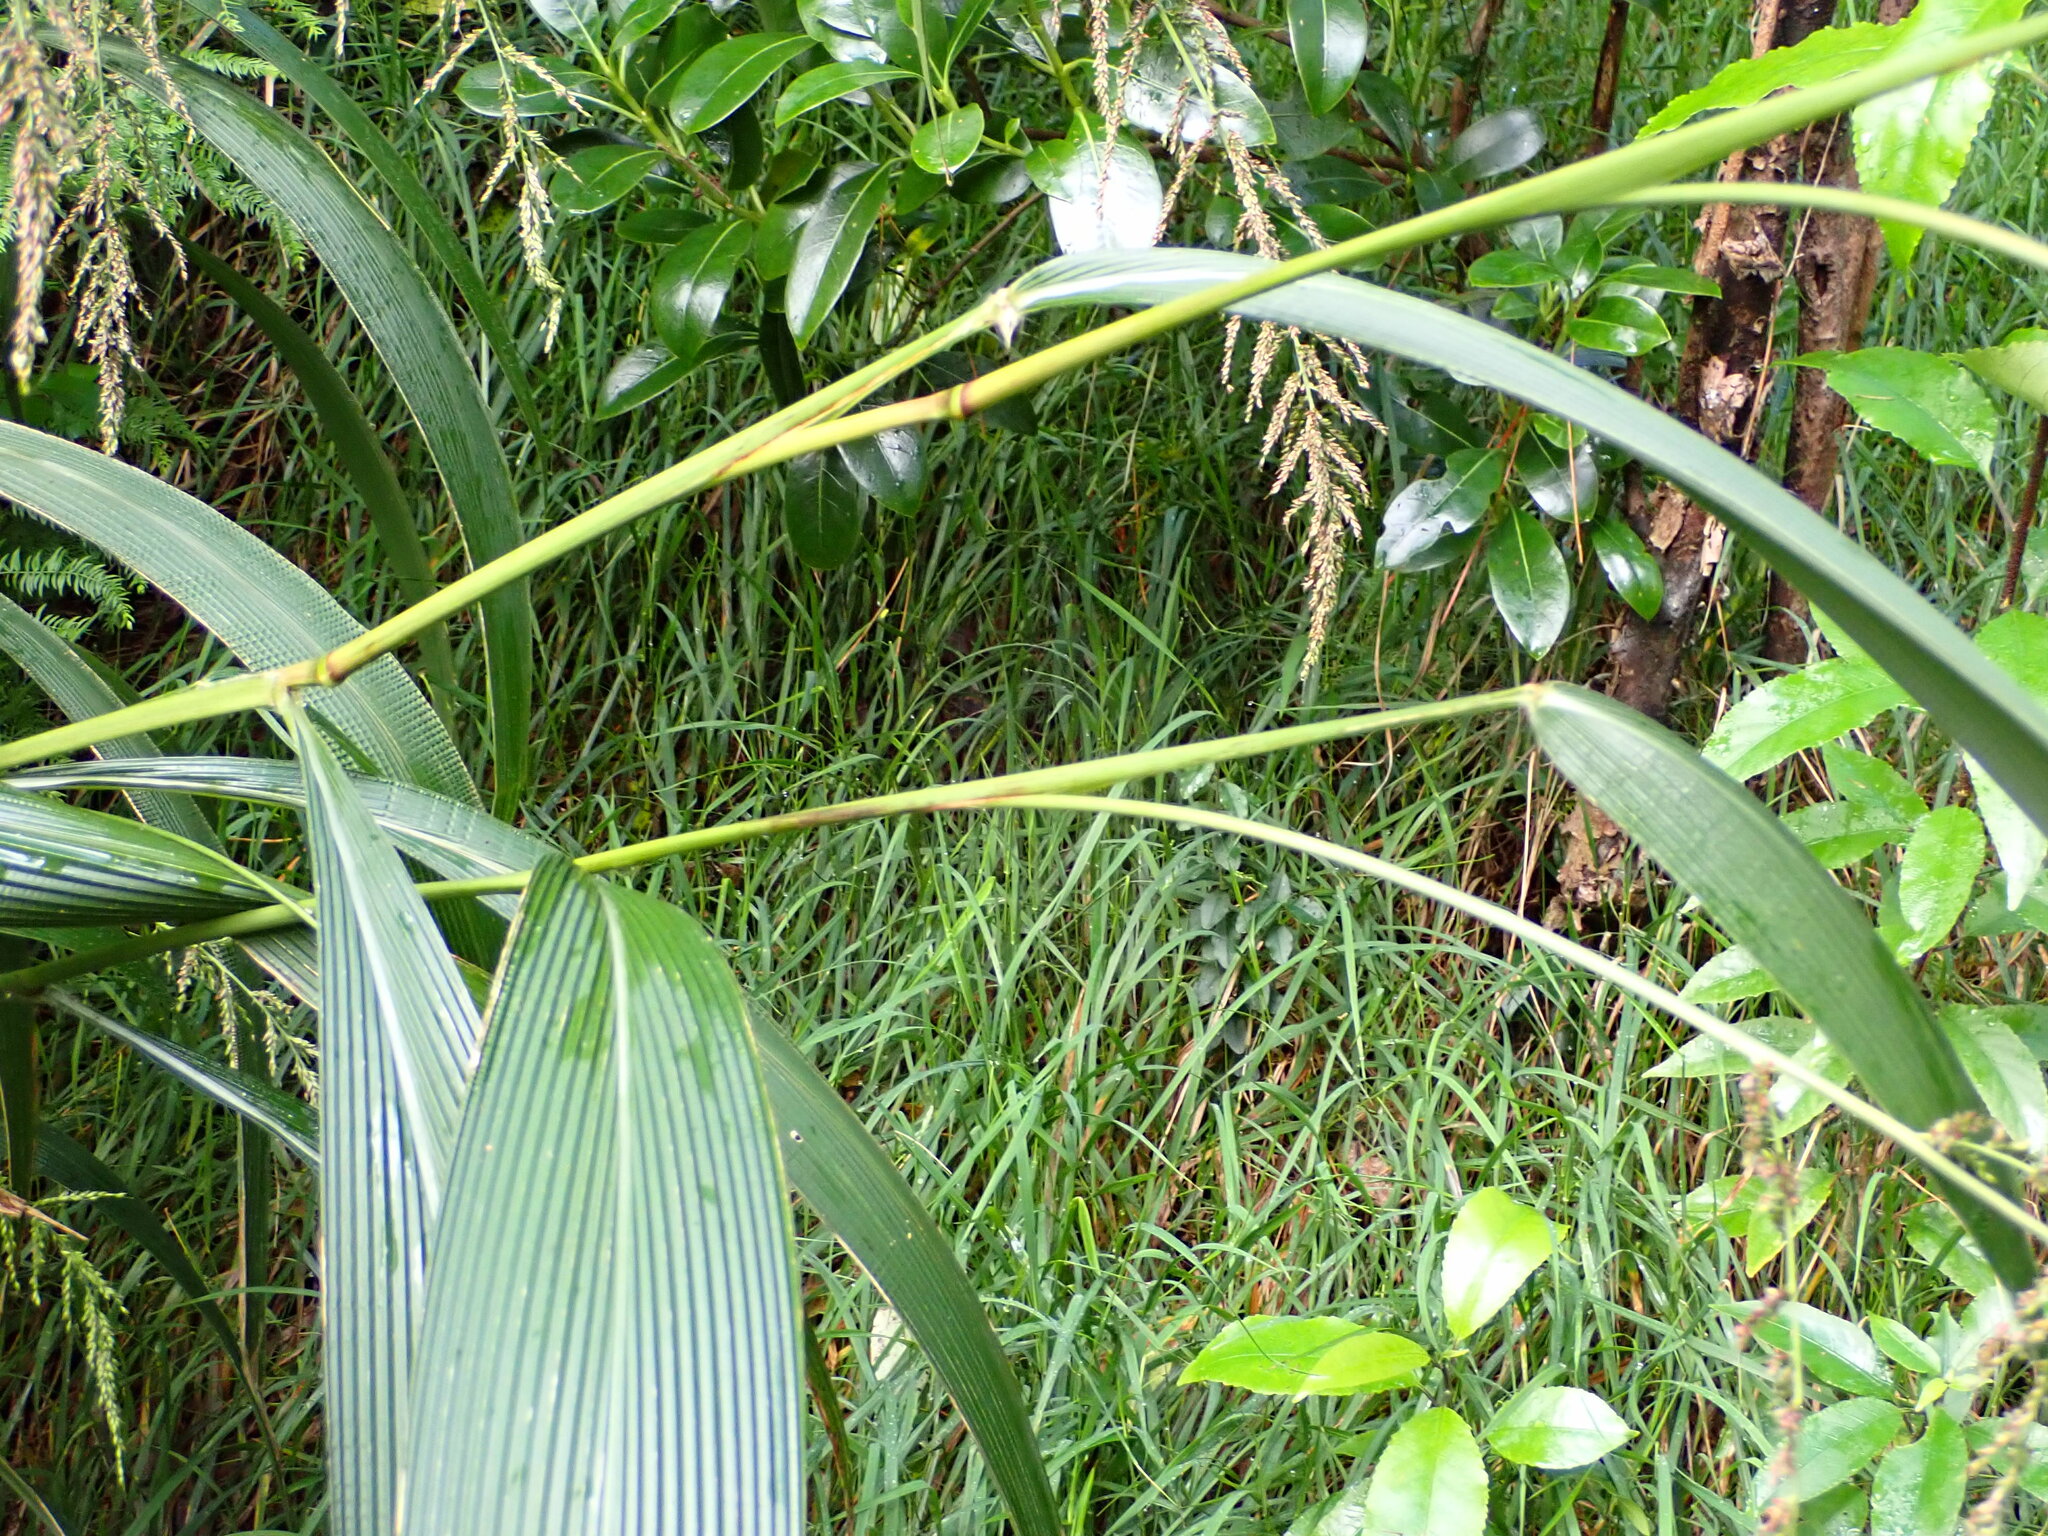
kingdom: Plantae
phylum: Tracheophyta
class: Liliopsida
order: Poales
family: Poaceae
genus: Setaria
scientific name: Setaria palmifolia
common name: Broadleaved bristlegrass
